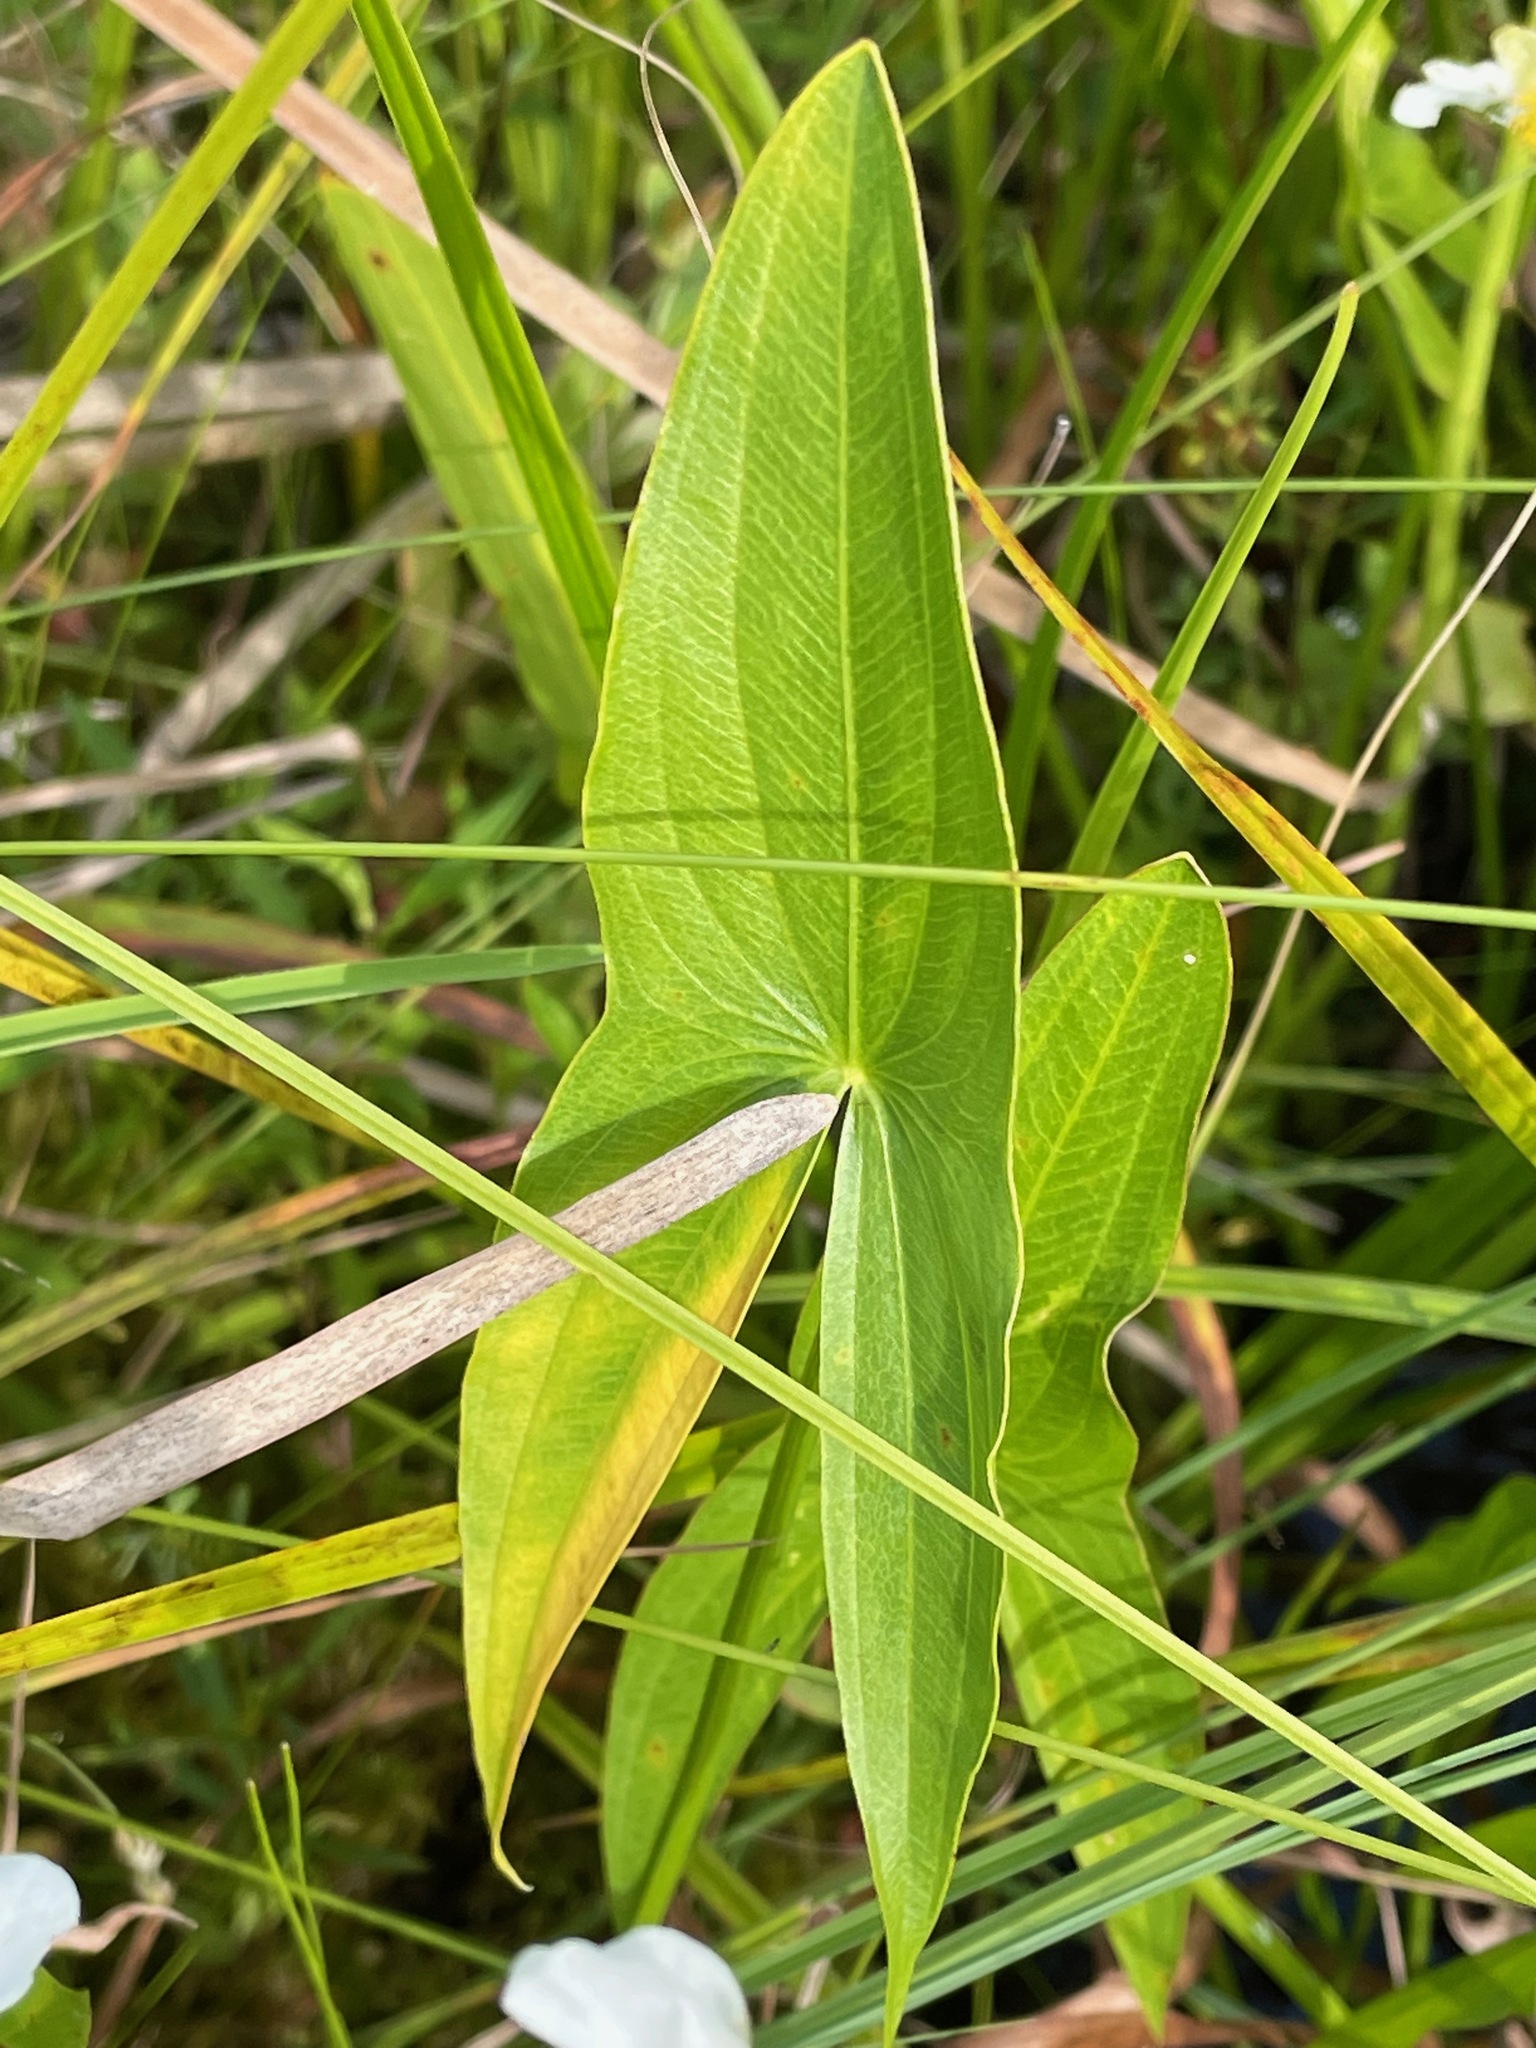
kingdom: Plantae
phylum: Tracheophyta
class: Liliopsida
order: Alismatales
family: Alismataceae
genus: Sagittaria
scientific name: Sagittaria latifolia
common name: Duck-potato
